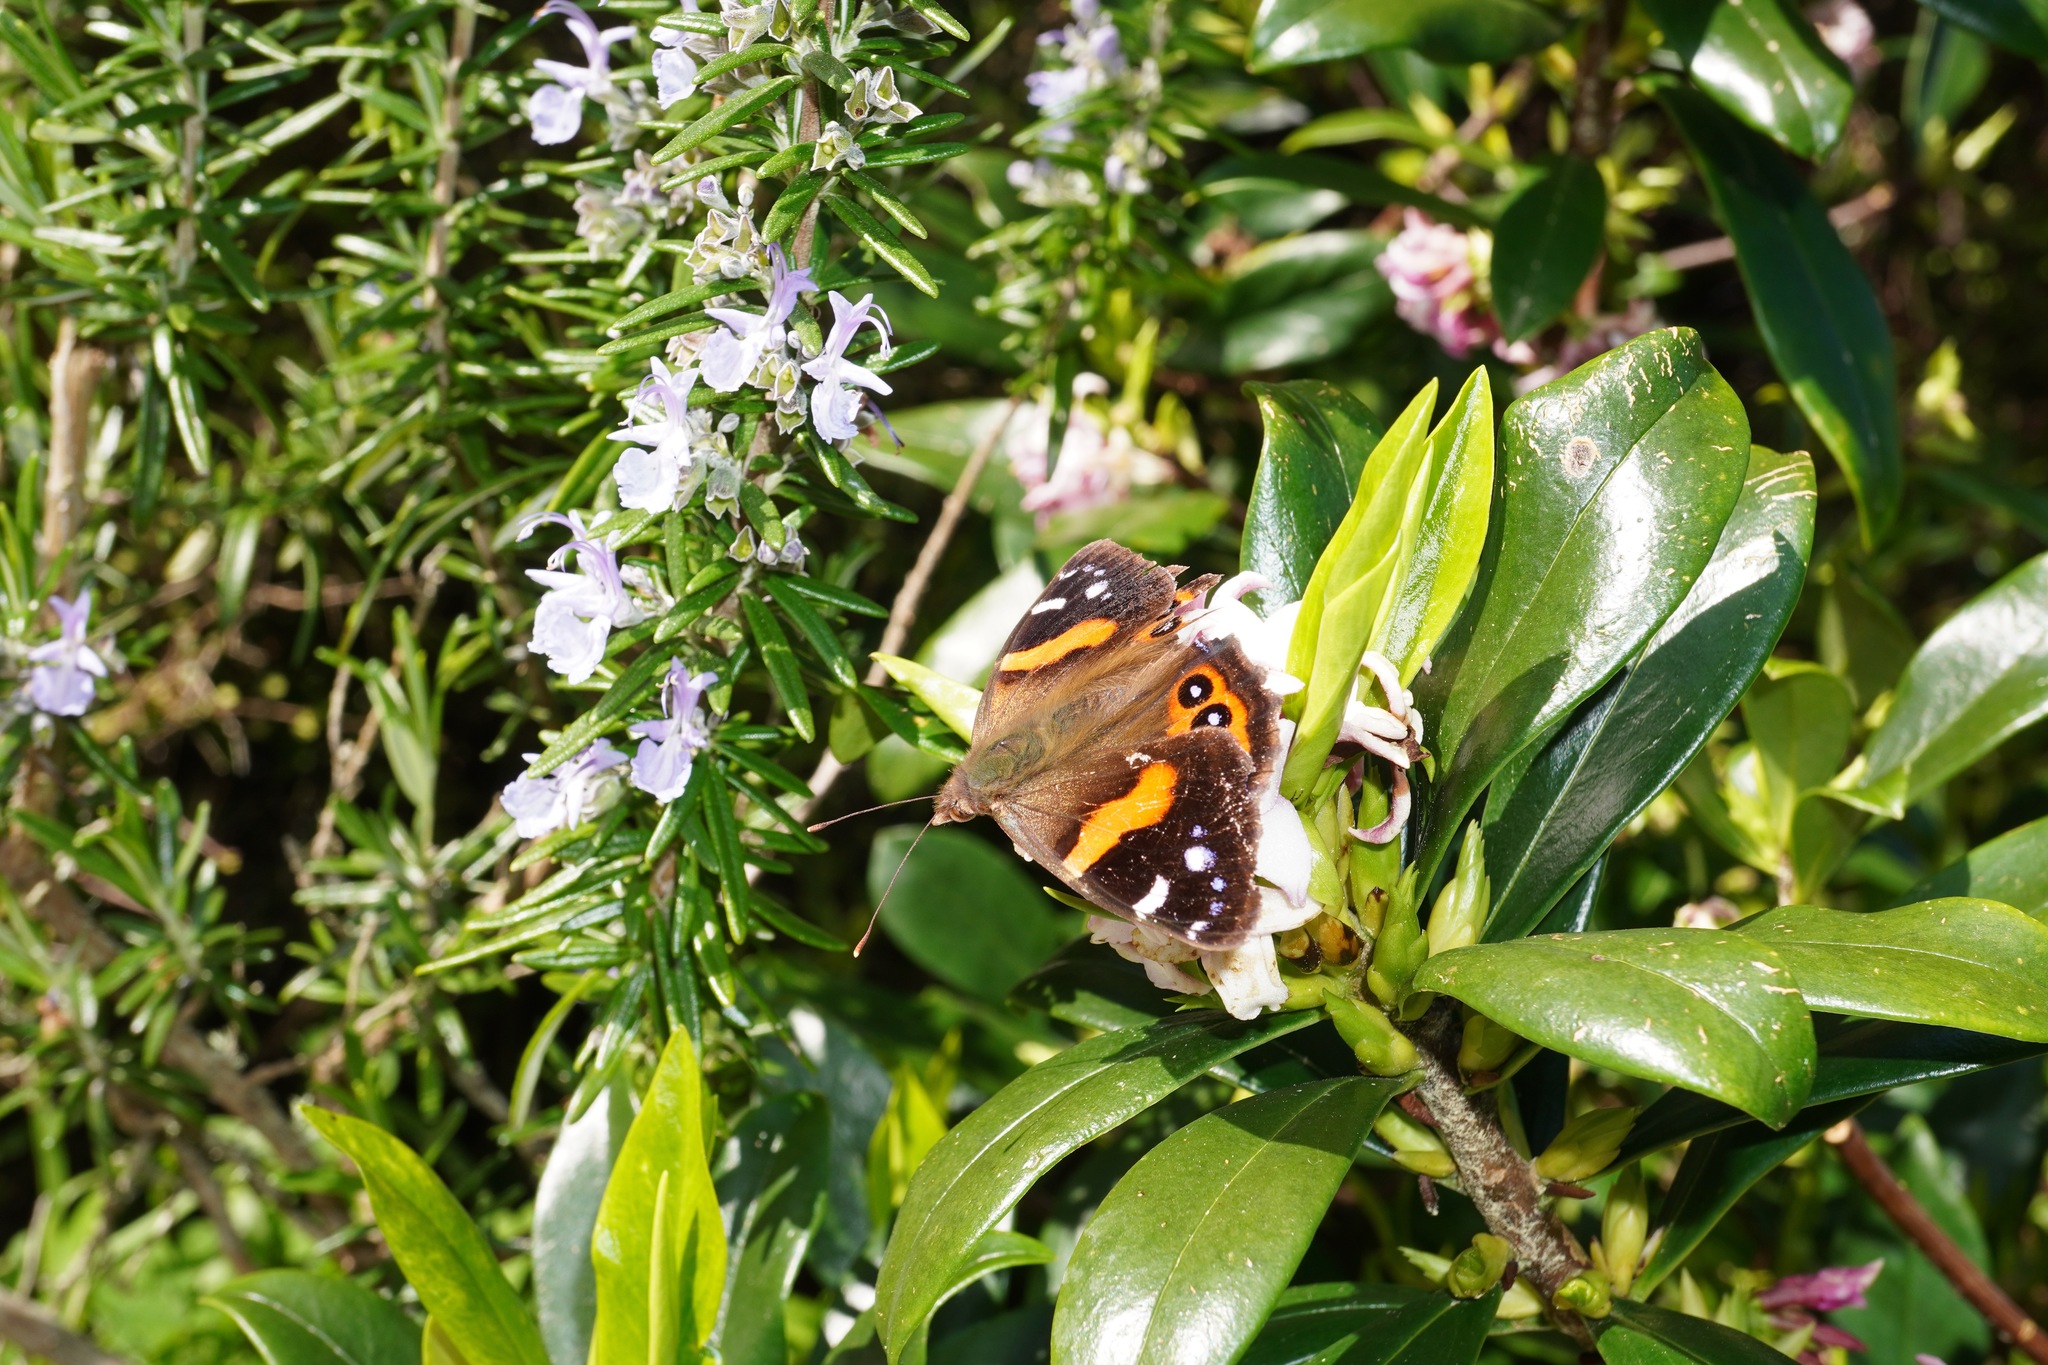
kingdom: Animalia
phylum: Arthropoda
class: Insecta
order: Lepidoptera
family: Nymphalidae
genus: Vanessa
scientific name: Vanessa gonerilla
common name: New zealand red admiral
